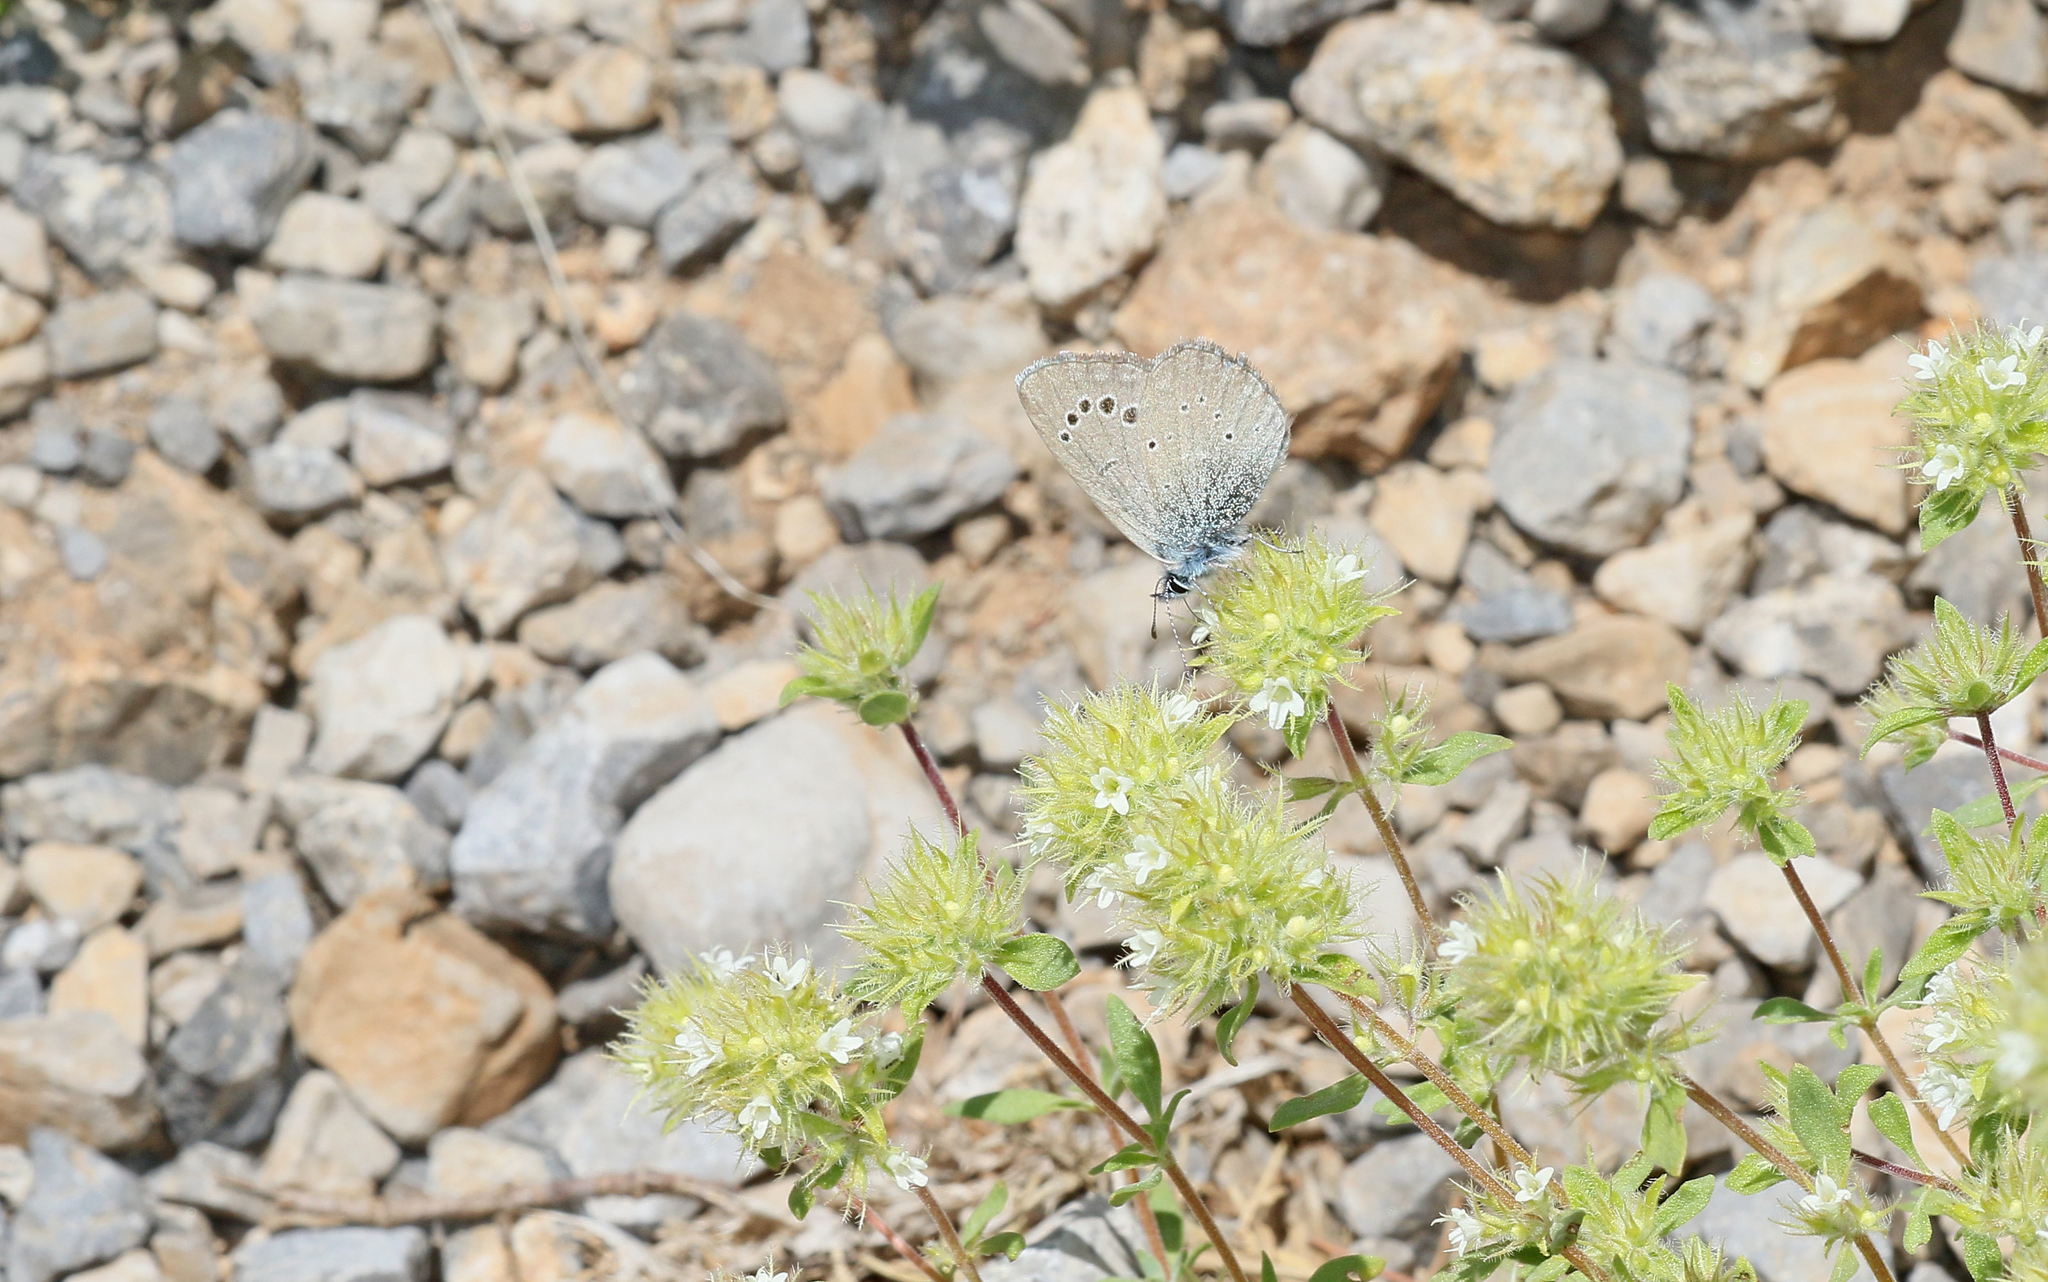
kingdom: Animalia
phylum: Arthropoda
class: Insecta
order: Lepidoptera
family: Lycaenidae
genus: Glaucopsyche
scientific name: Glaucopsyche melanops
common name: Black-eyed blue
